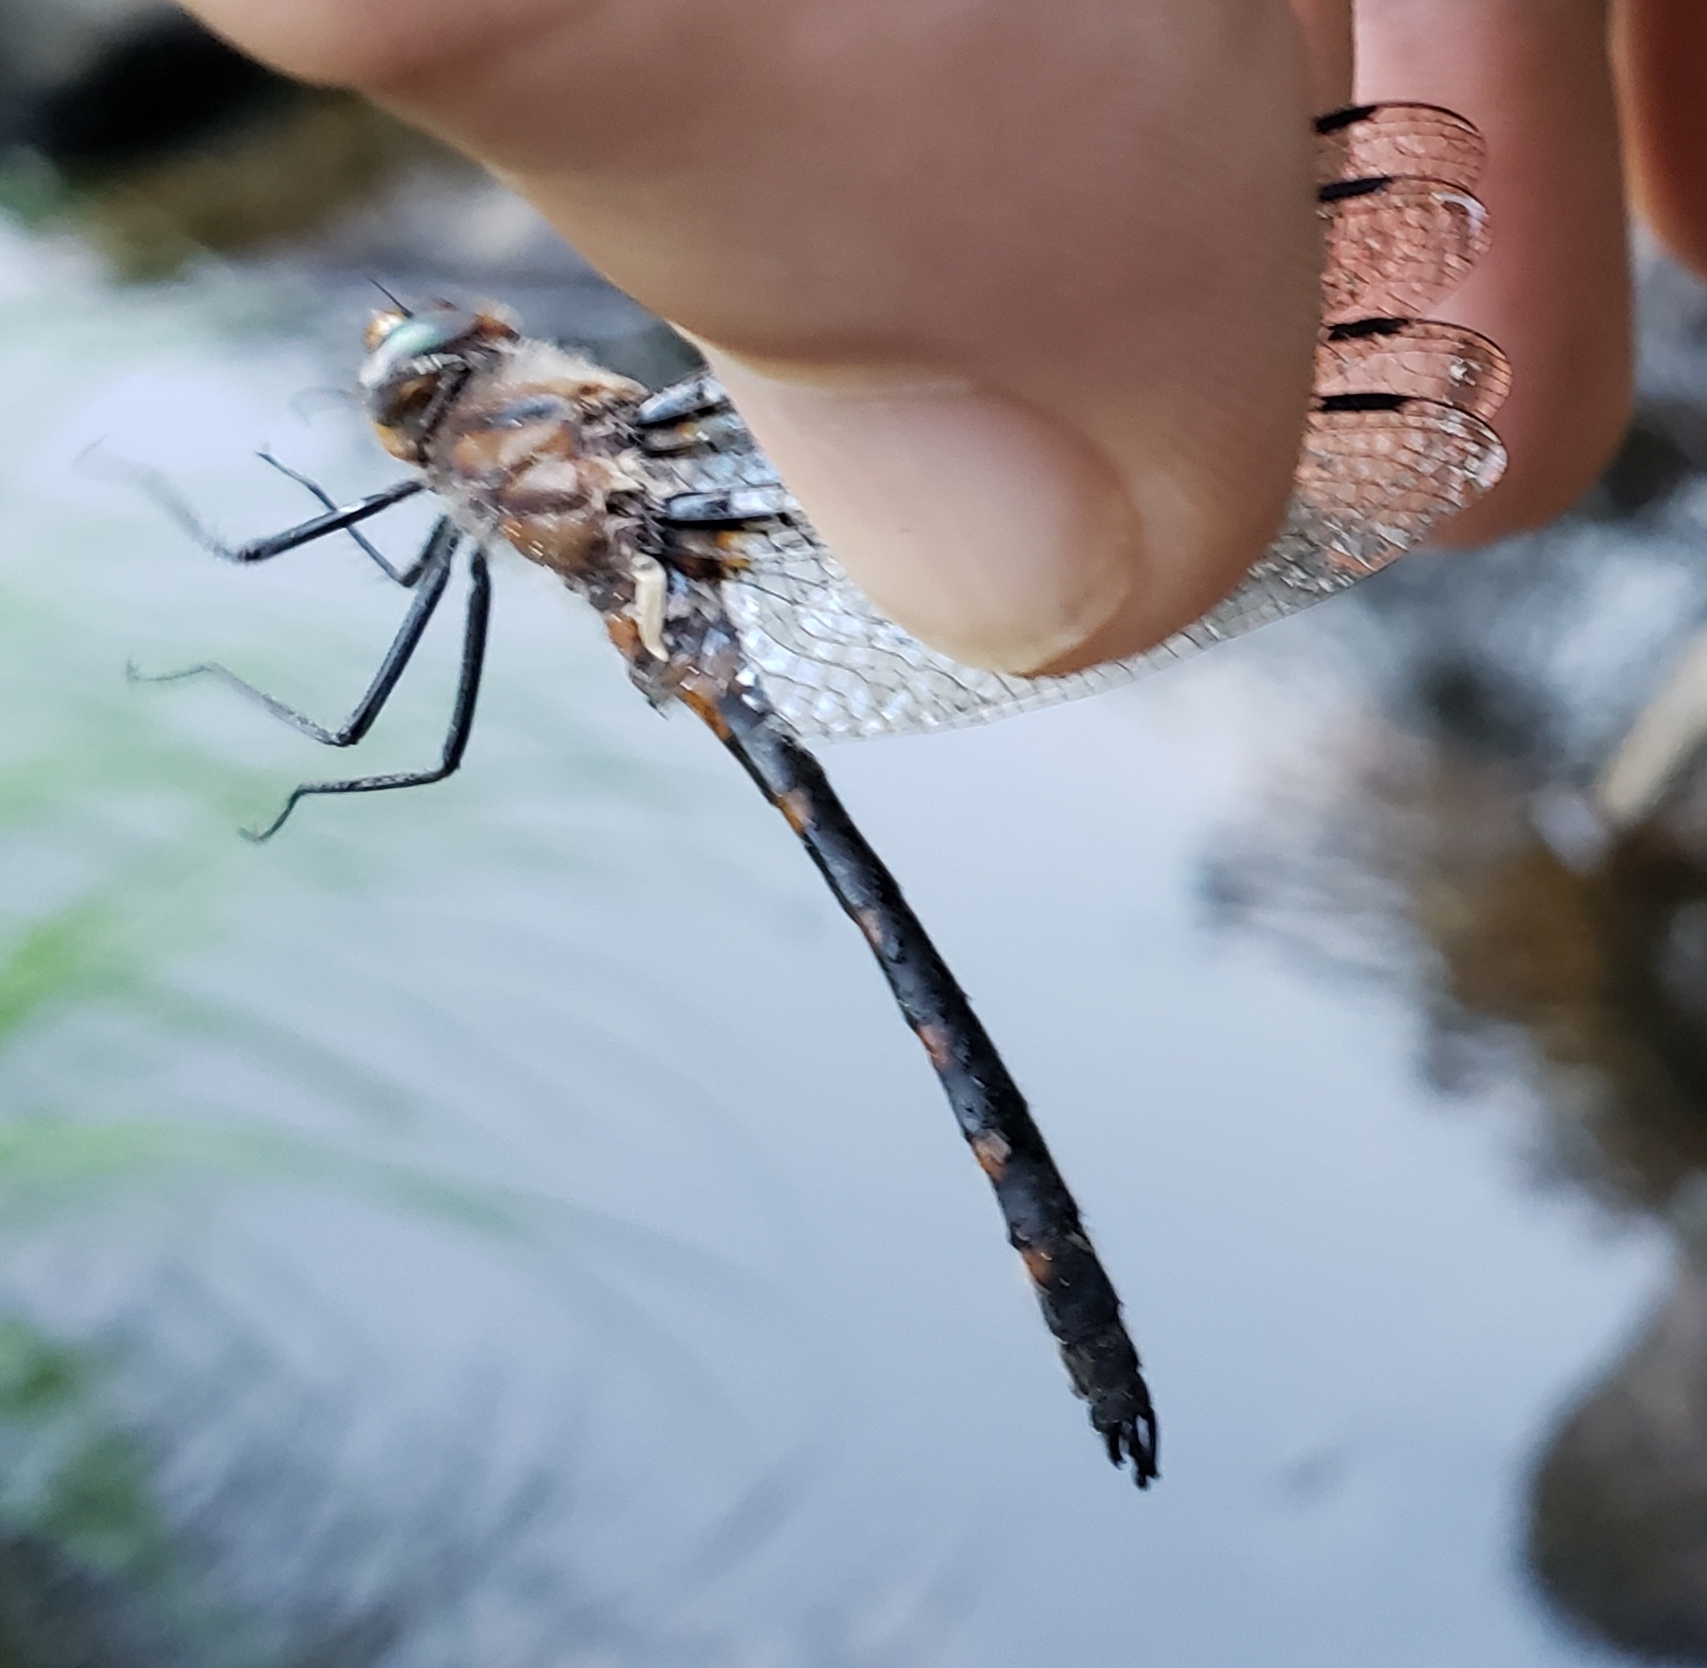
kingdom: Animalia
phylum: Arthropoda
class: Insecta
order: Odonata
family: Corduliidae
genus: Helocordulia
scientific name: Helocordulia uhleri
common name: Uhler's sundragon
